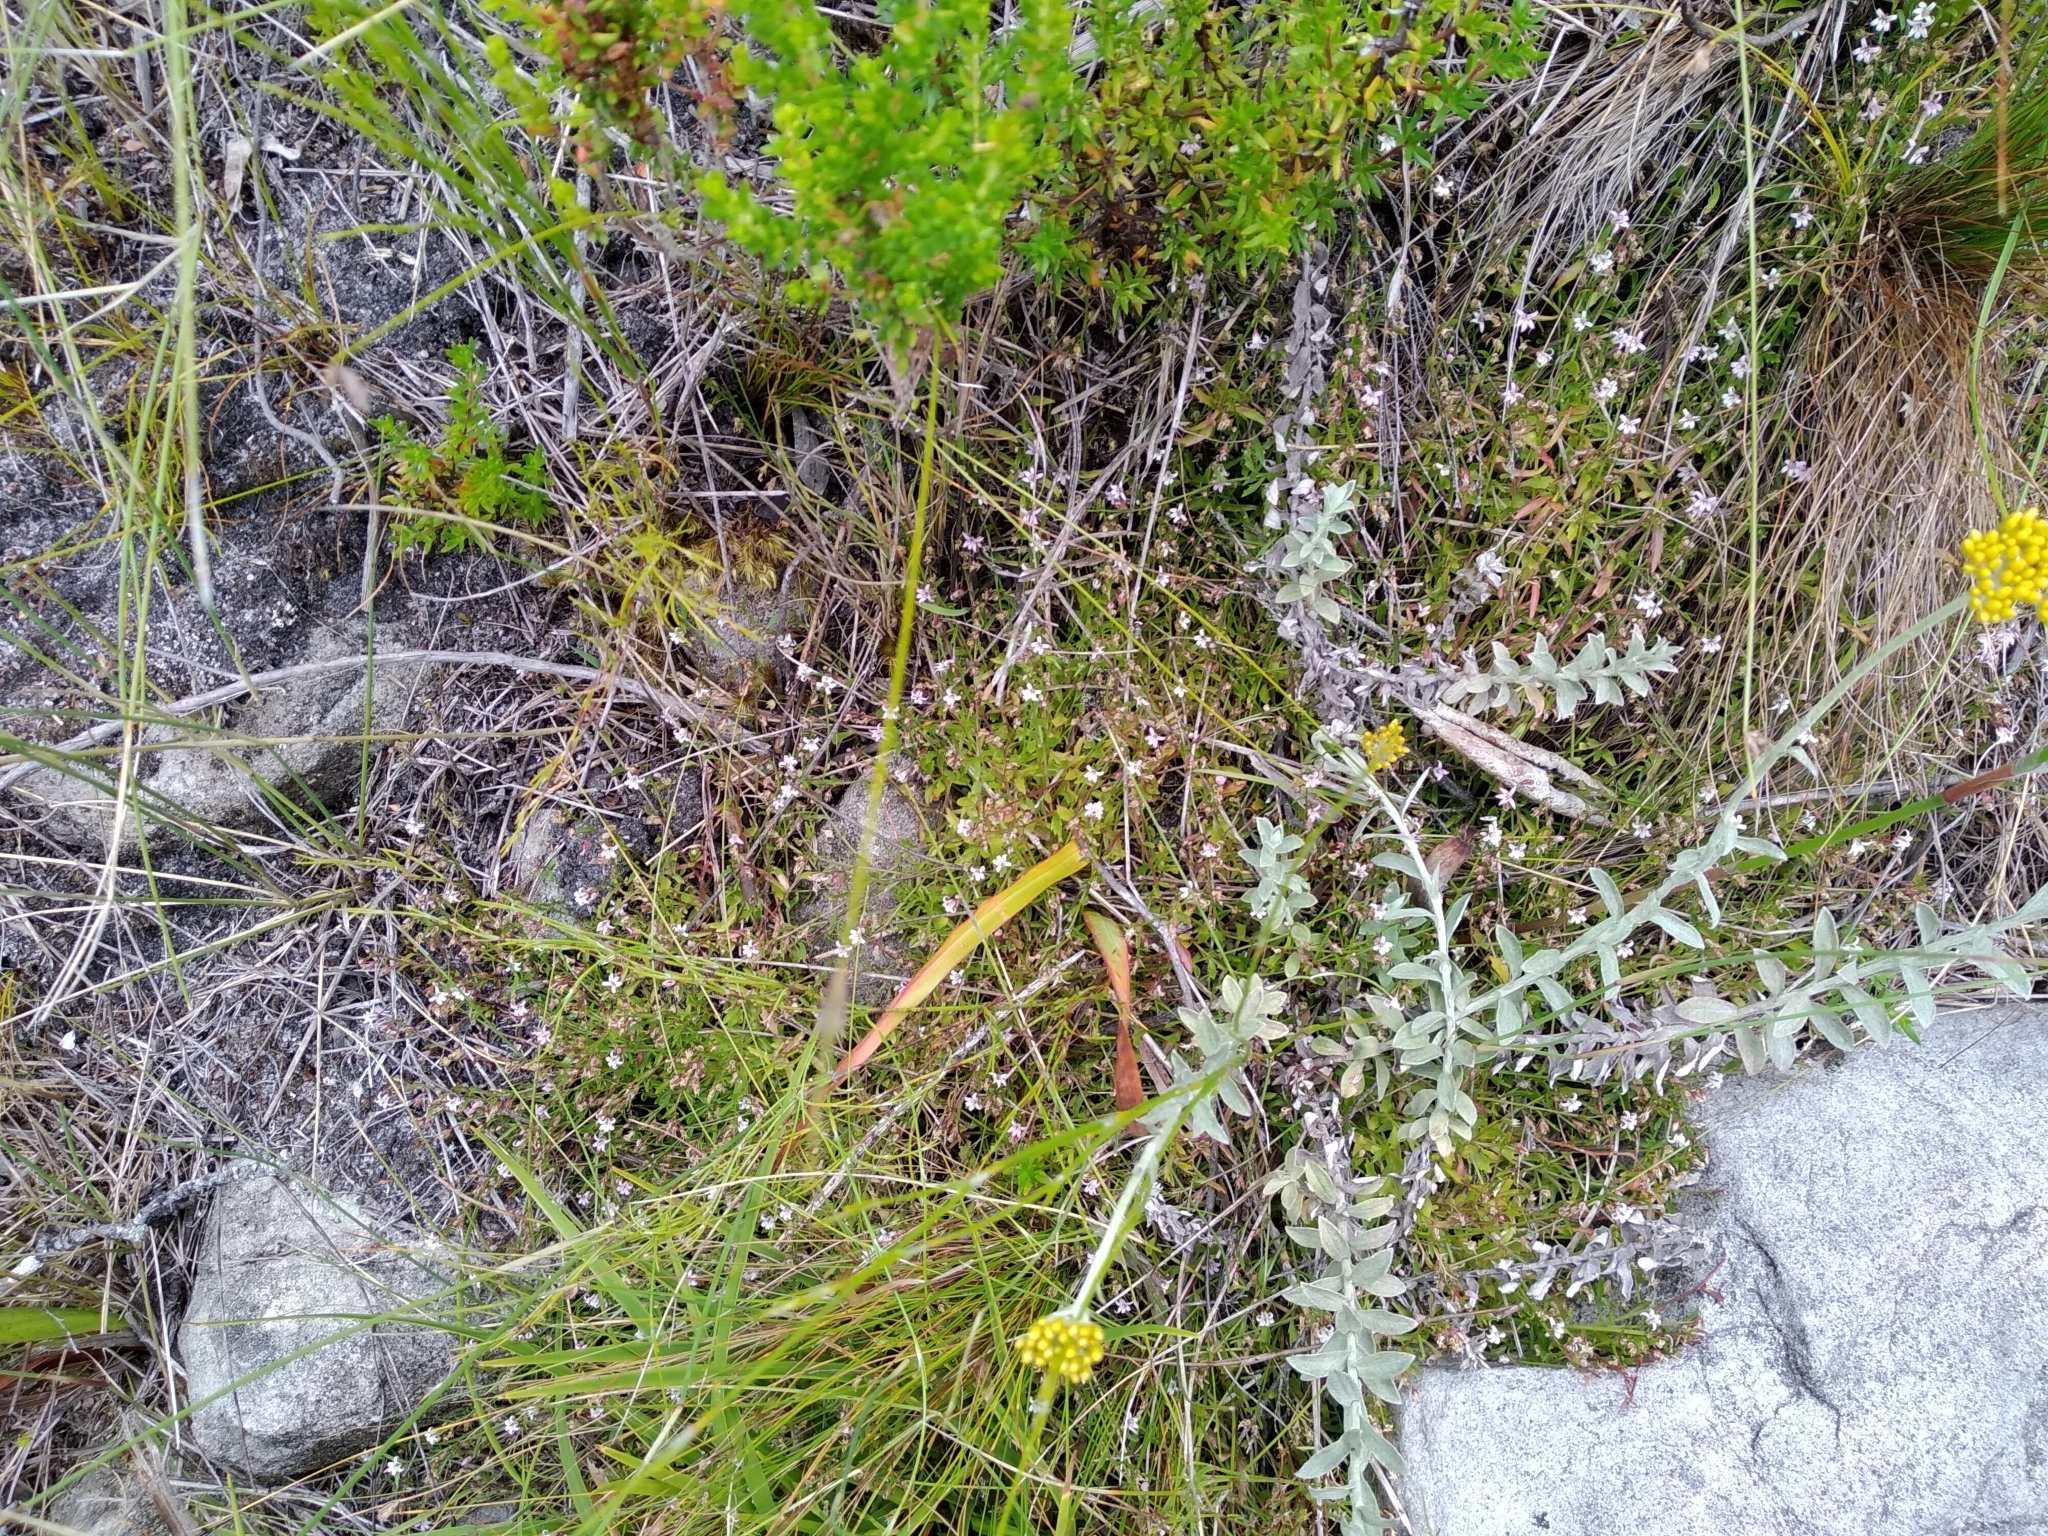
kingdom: Plantae
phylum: Tracheophyta
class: Magnoliopsida
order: Asterales
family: Campanulaceae
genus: Lobelia
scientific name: Lobelia eckloniana
